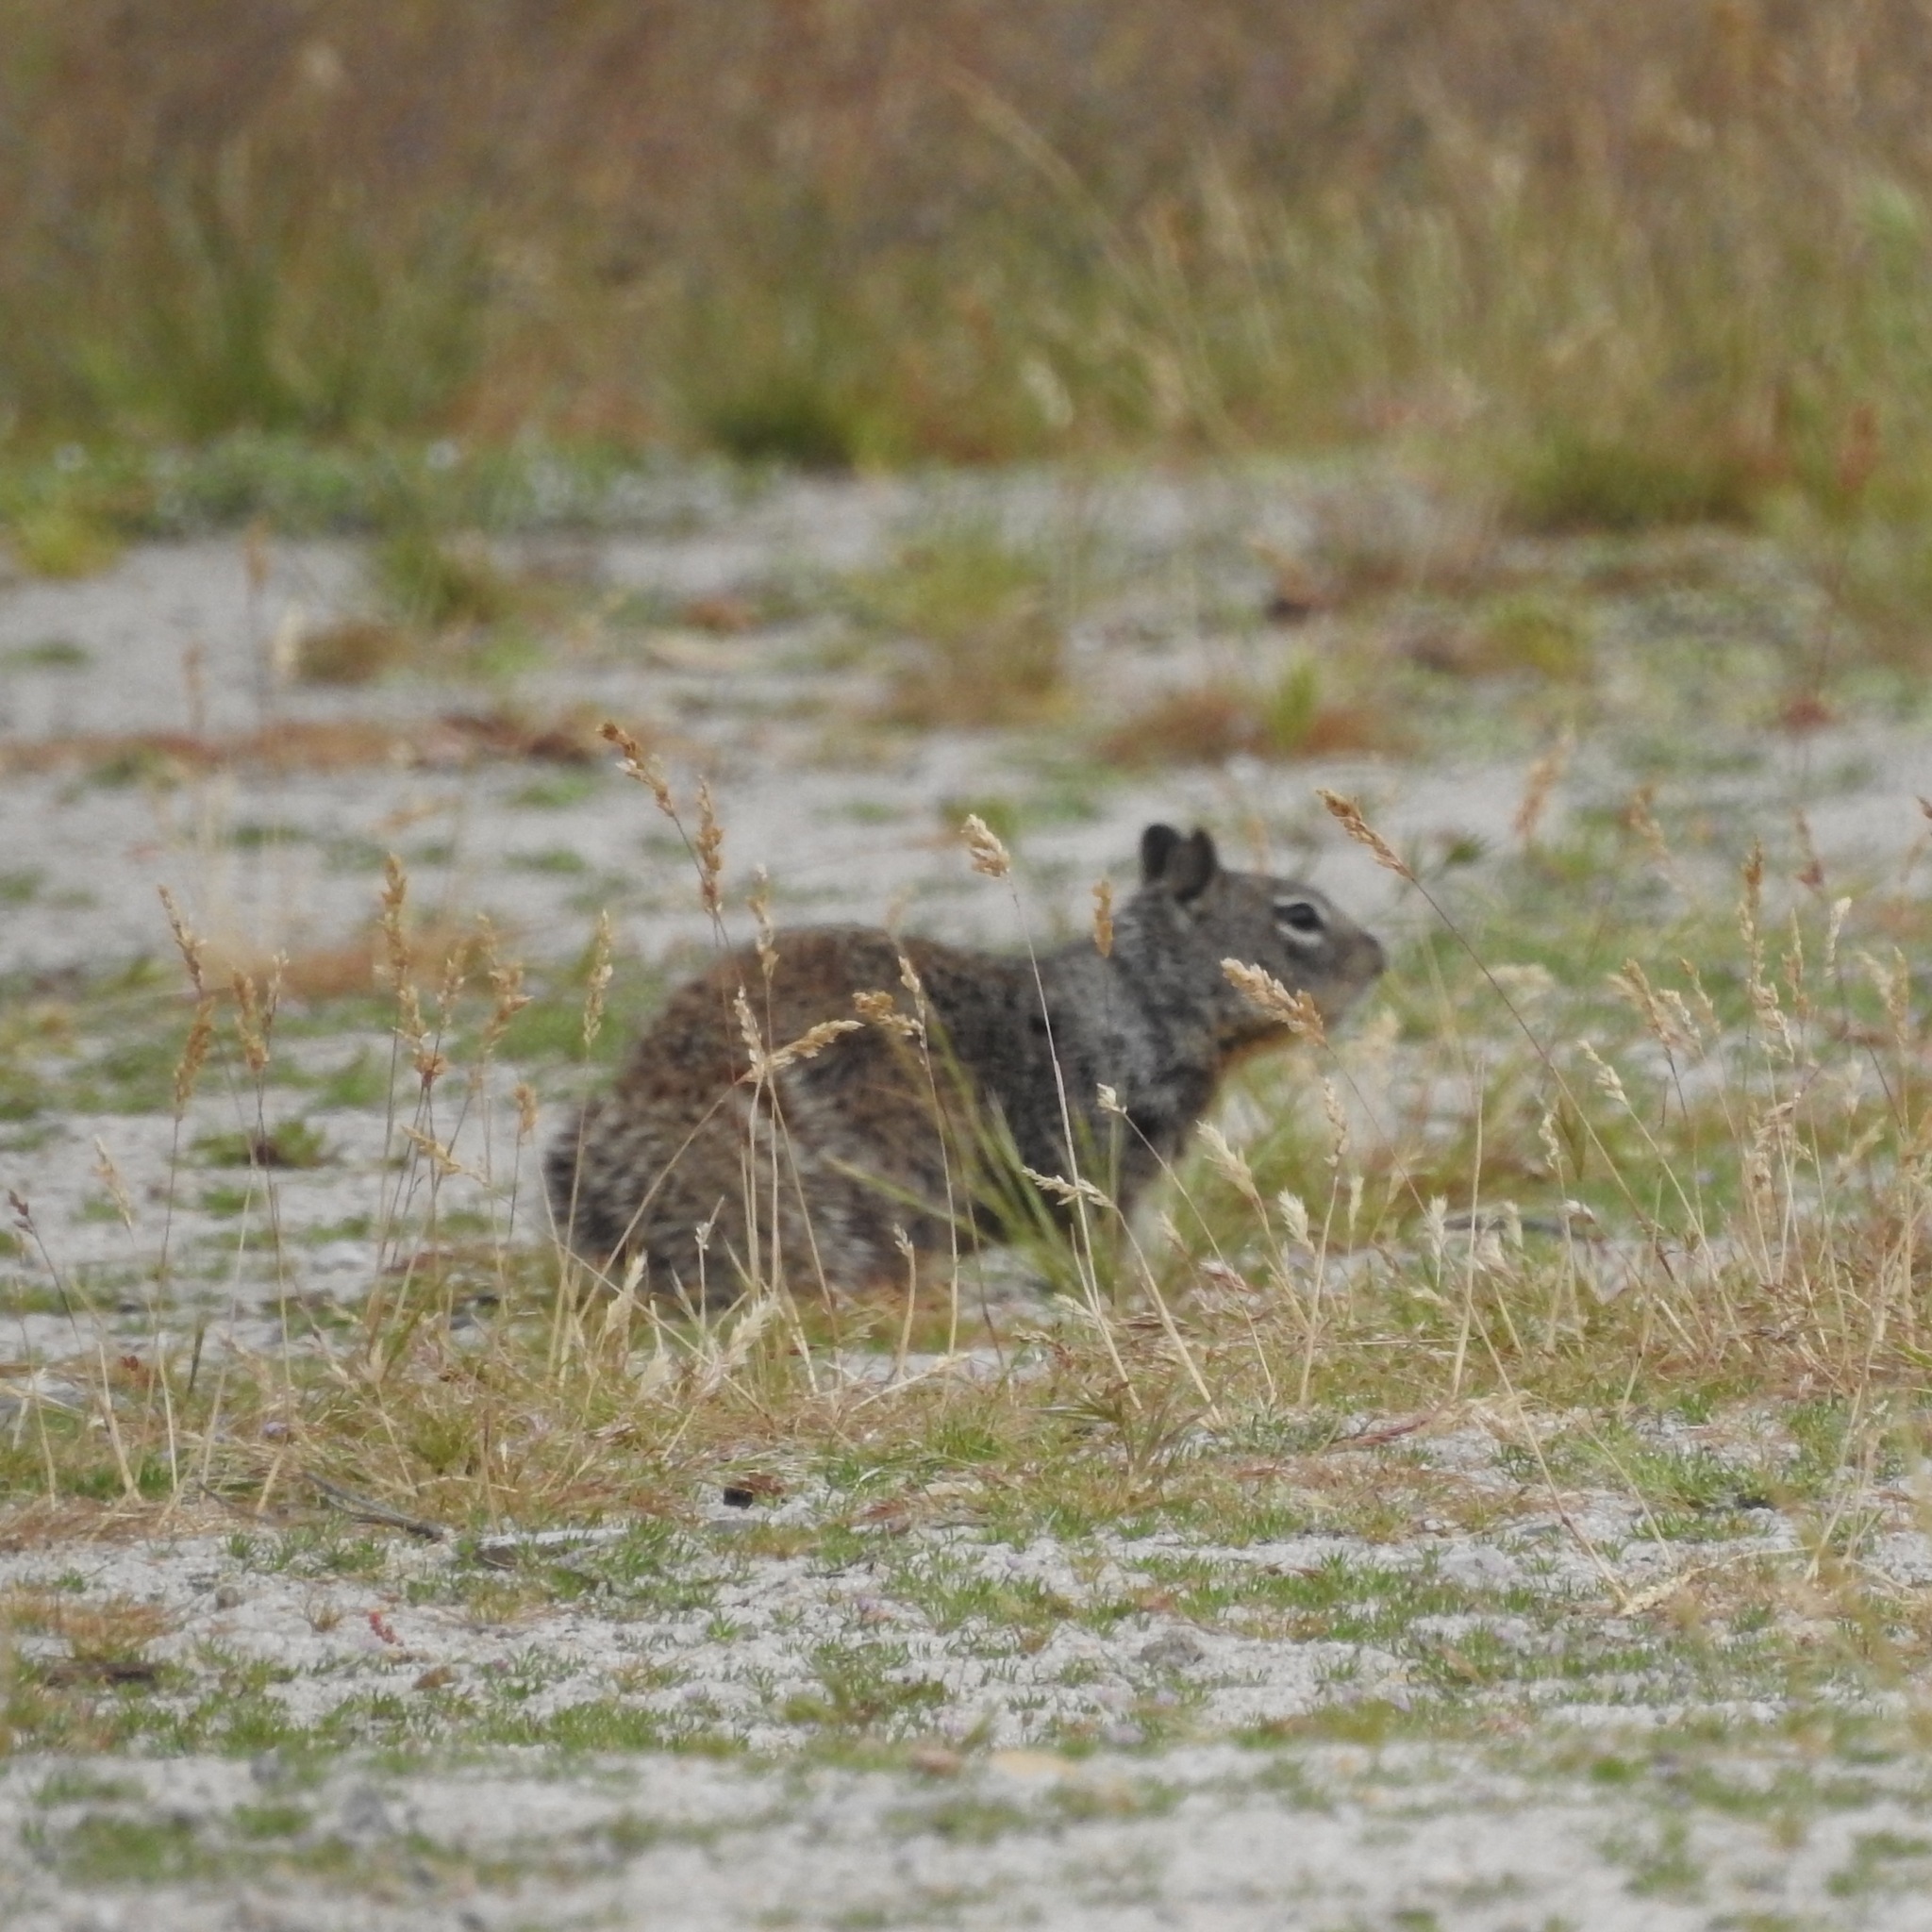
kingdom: Animalia
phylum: Chordata
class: Mammalia
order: Rodentia
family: Sciuridae
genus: Otospermophilus
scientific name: Otospermophilus beecheyi
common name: California ground squirrel
